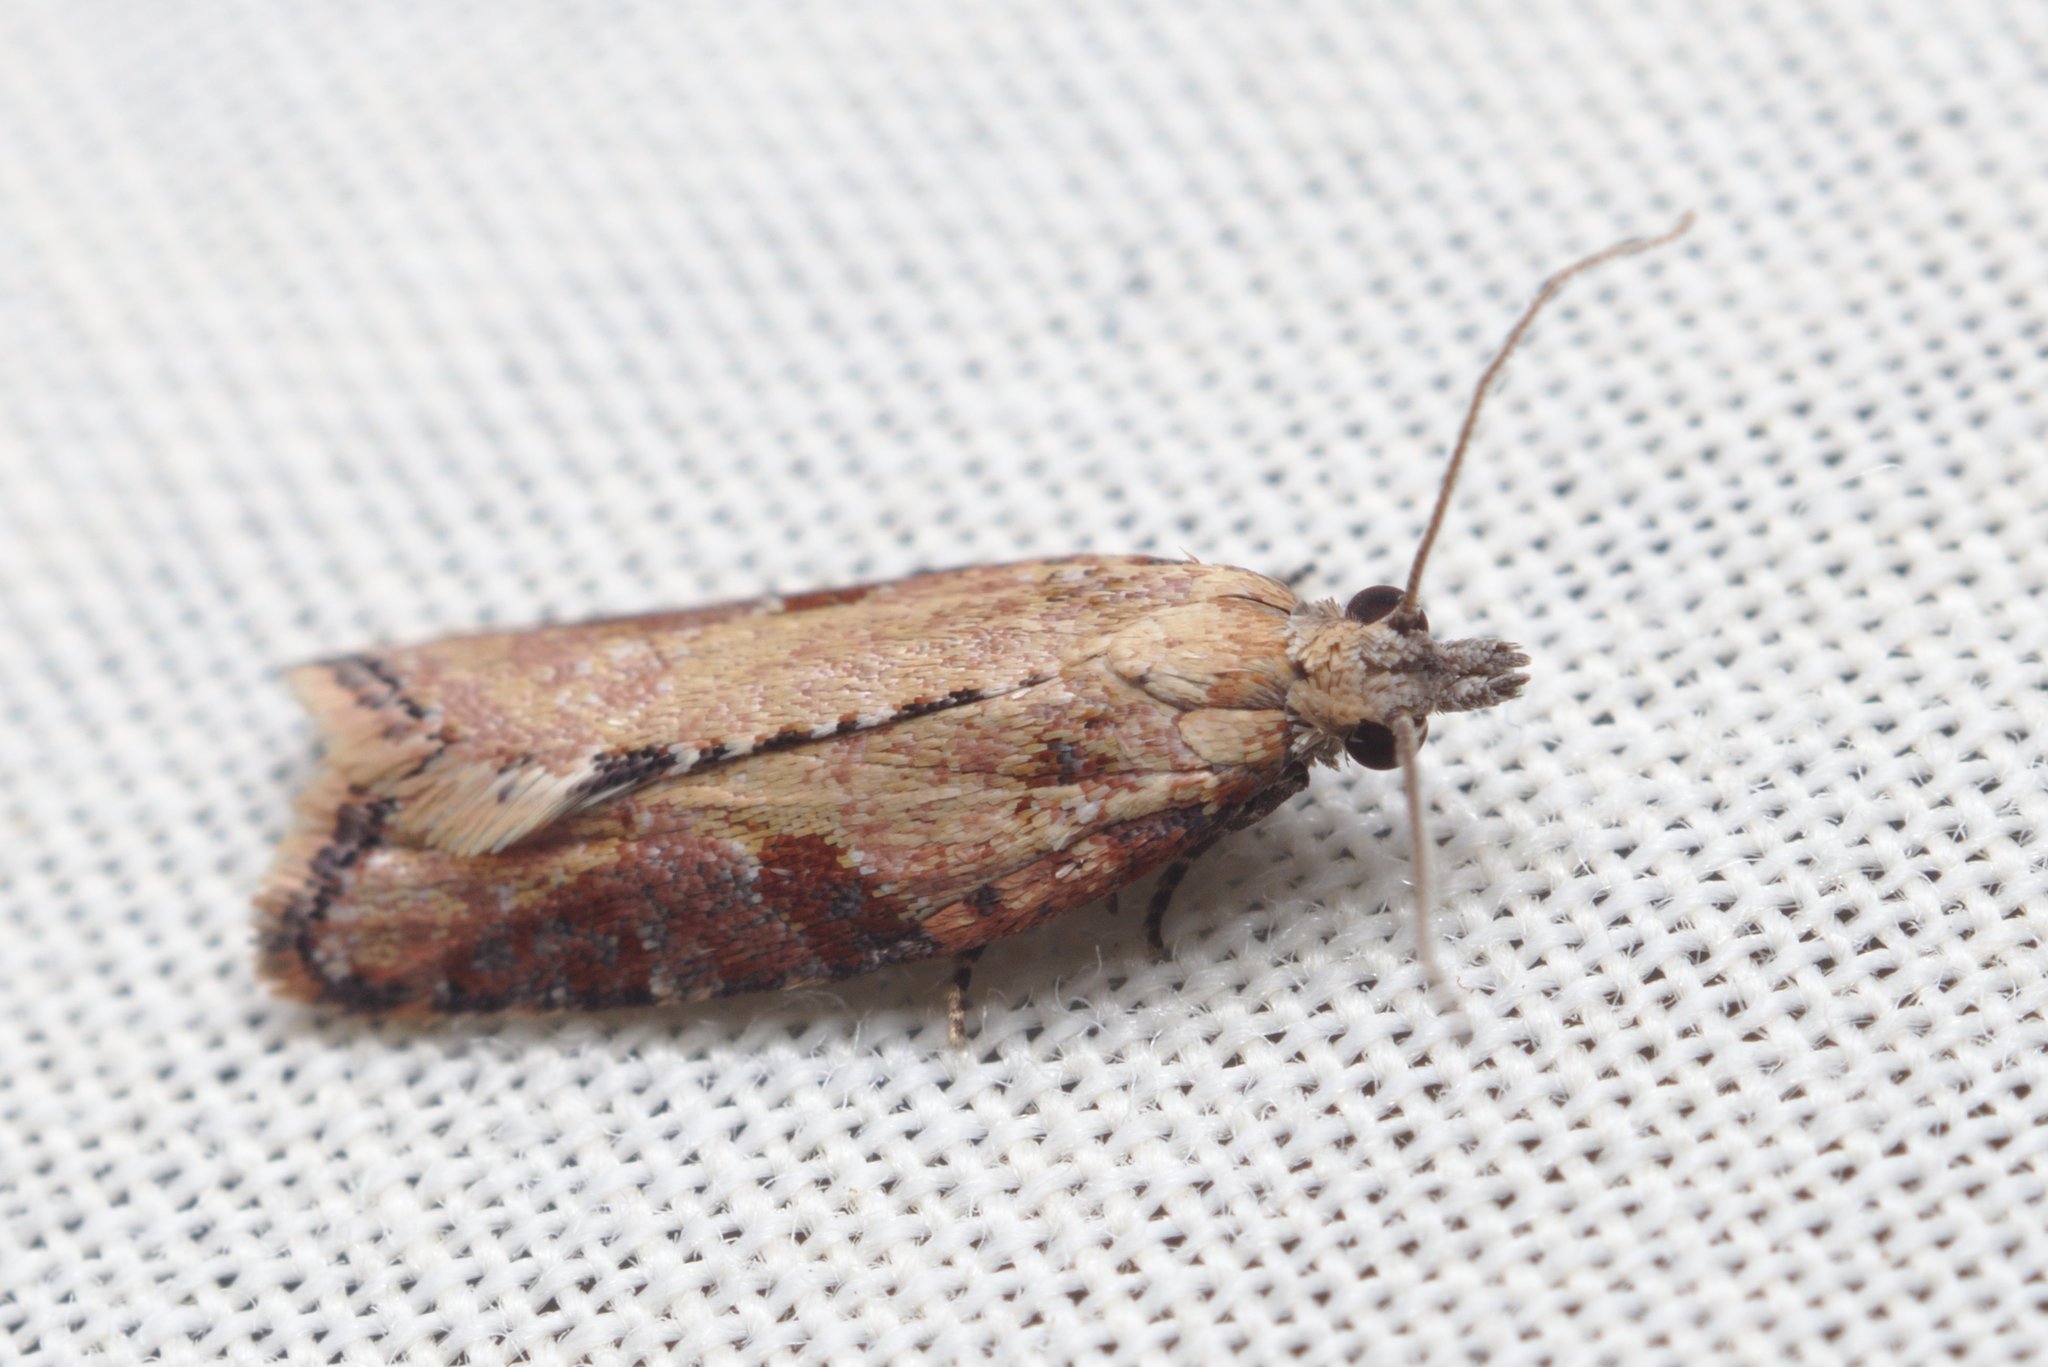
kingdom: Animalia
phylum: Arthropoda
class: Insecta
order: Lepidoptera
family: Tortricidae
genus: Capua
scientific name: Capua semiferana
